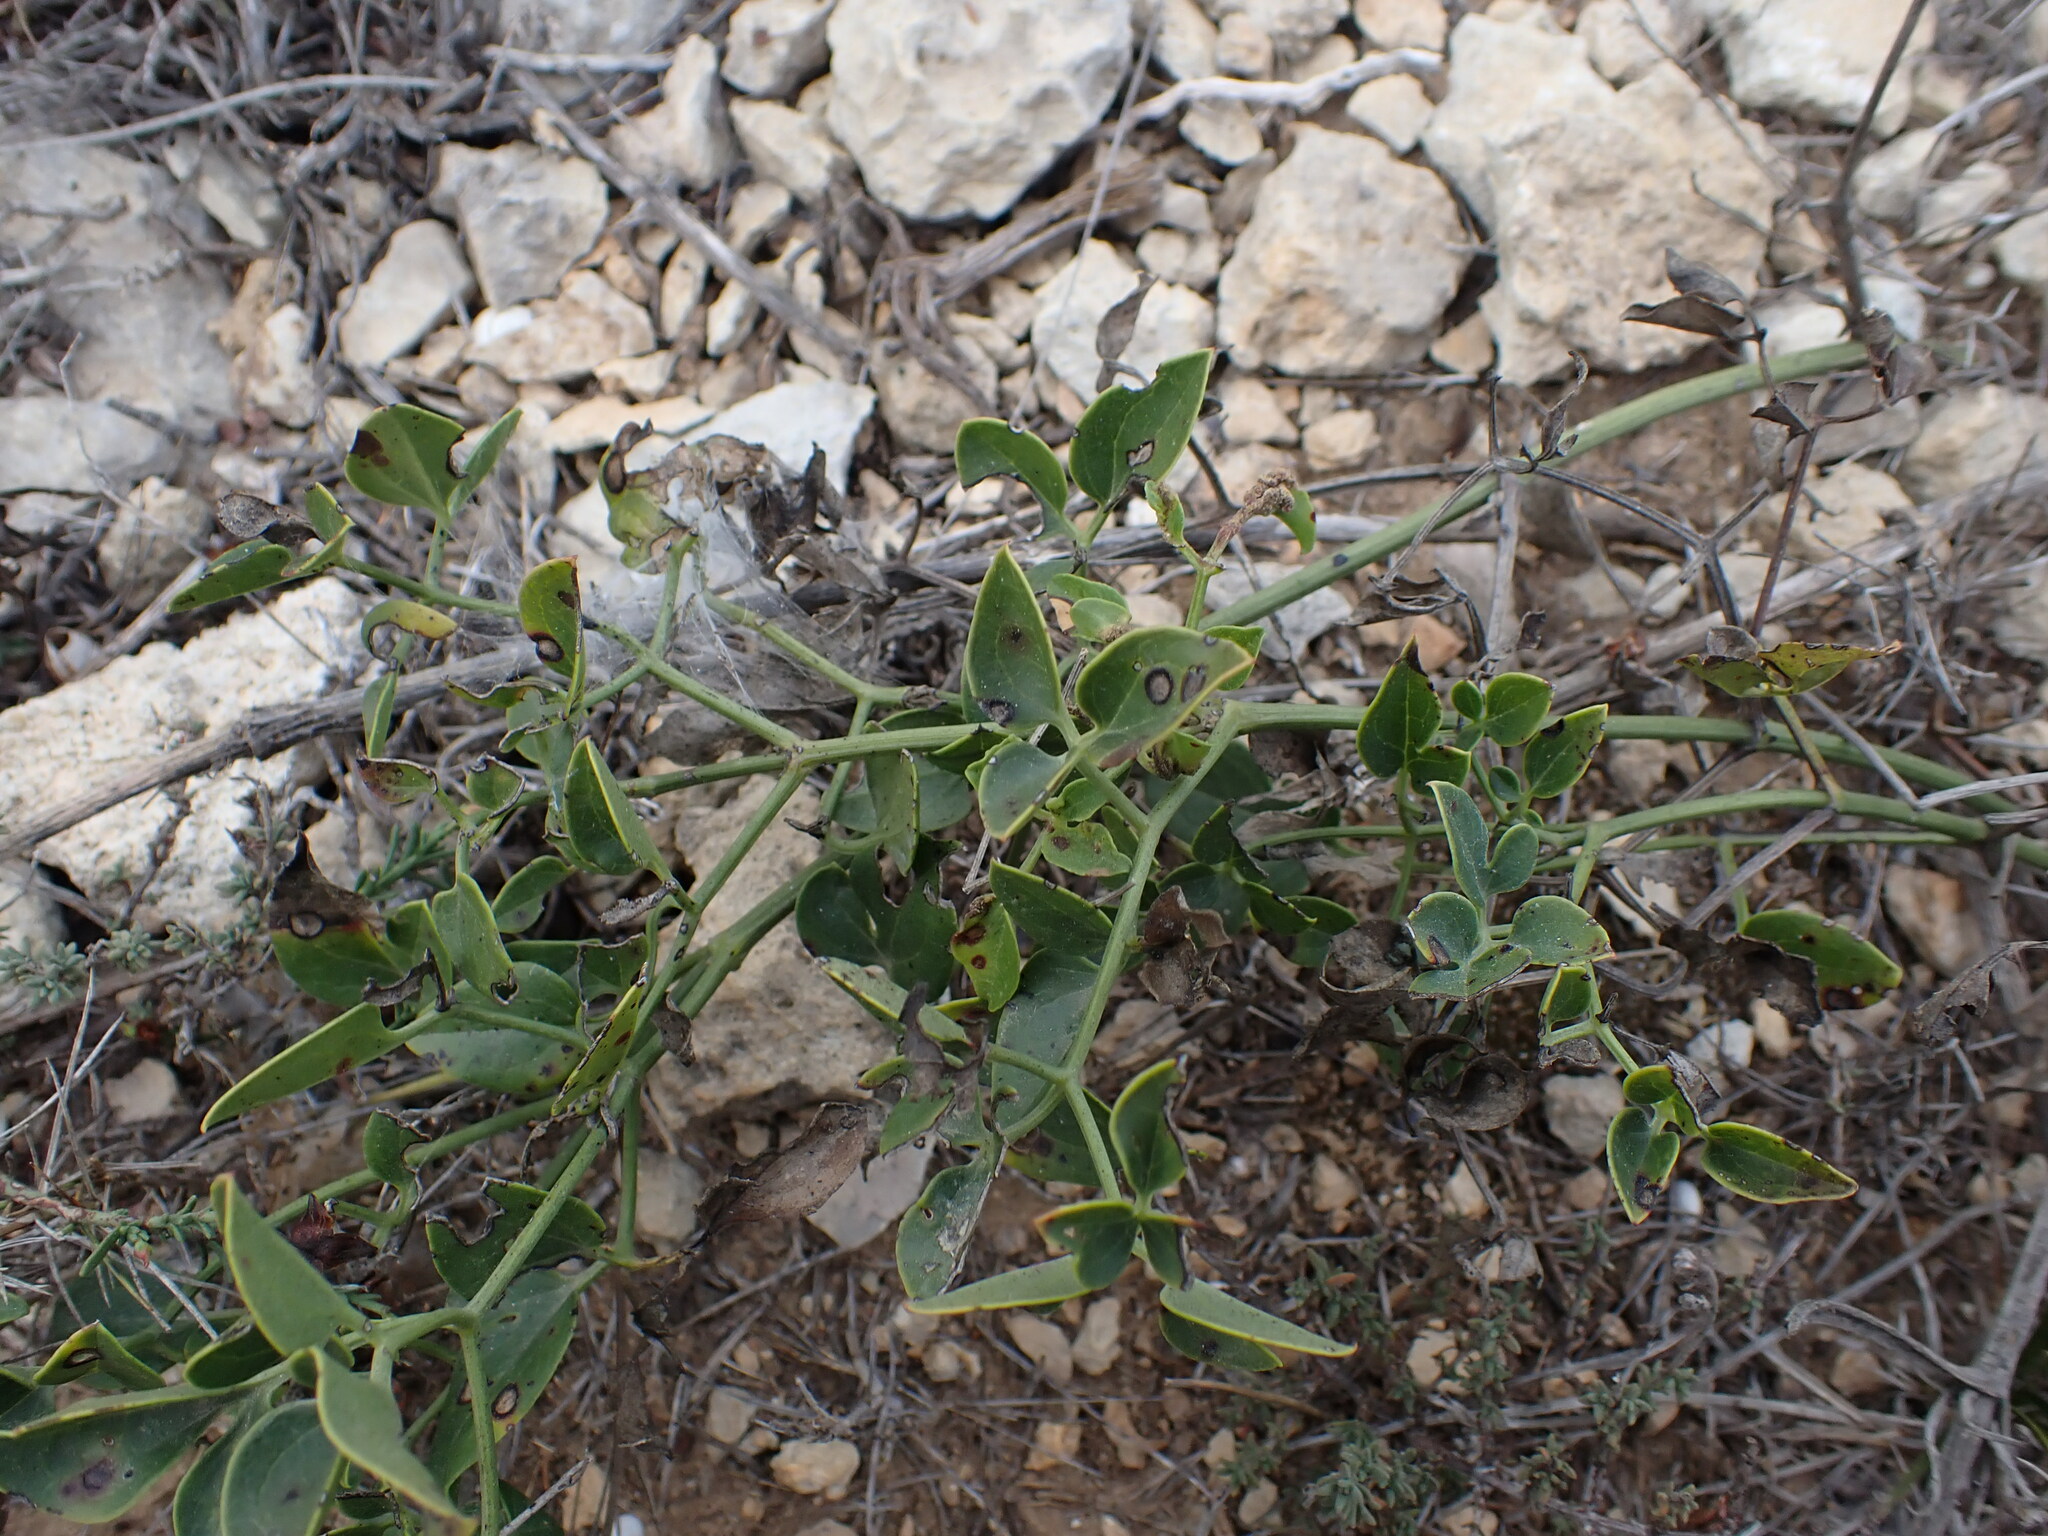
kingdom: Plantae
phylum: Tracheophyta
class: Magnoliopsida
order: Ranunculales
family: Ranunculaceae
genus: Clematis
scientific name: Clematis flammula
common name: Virgin's-bower
